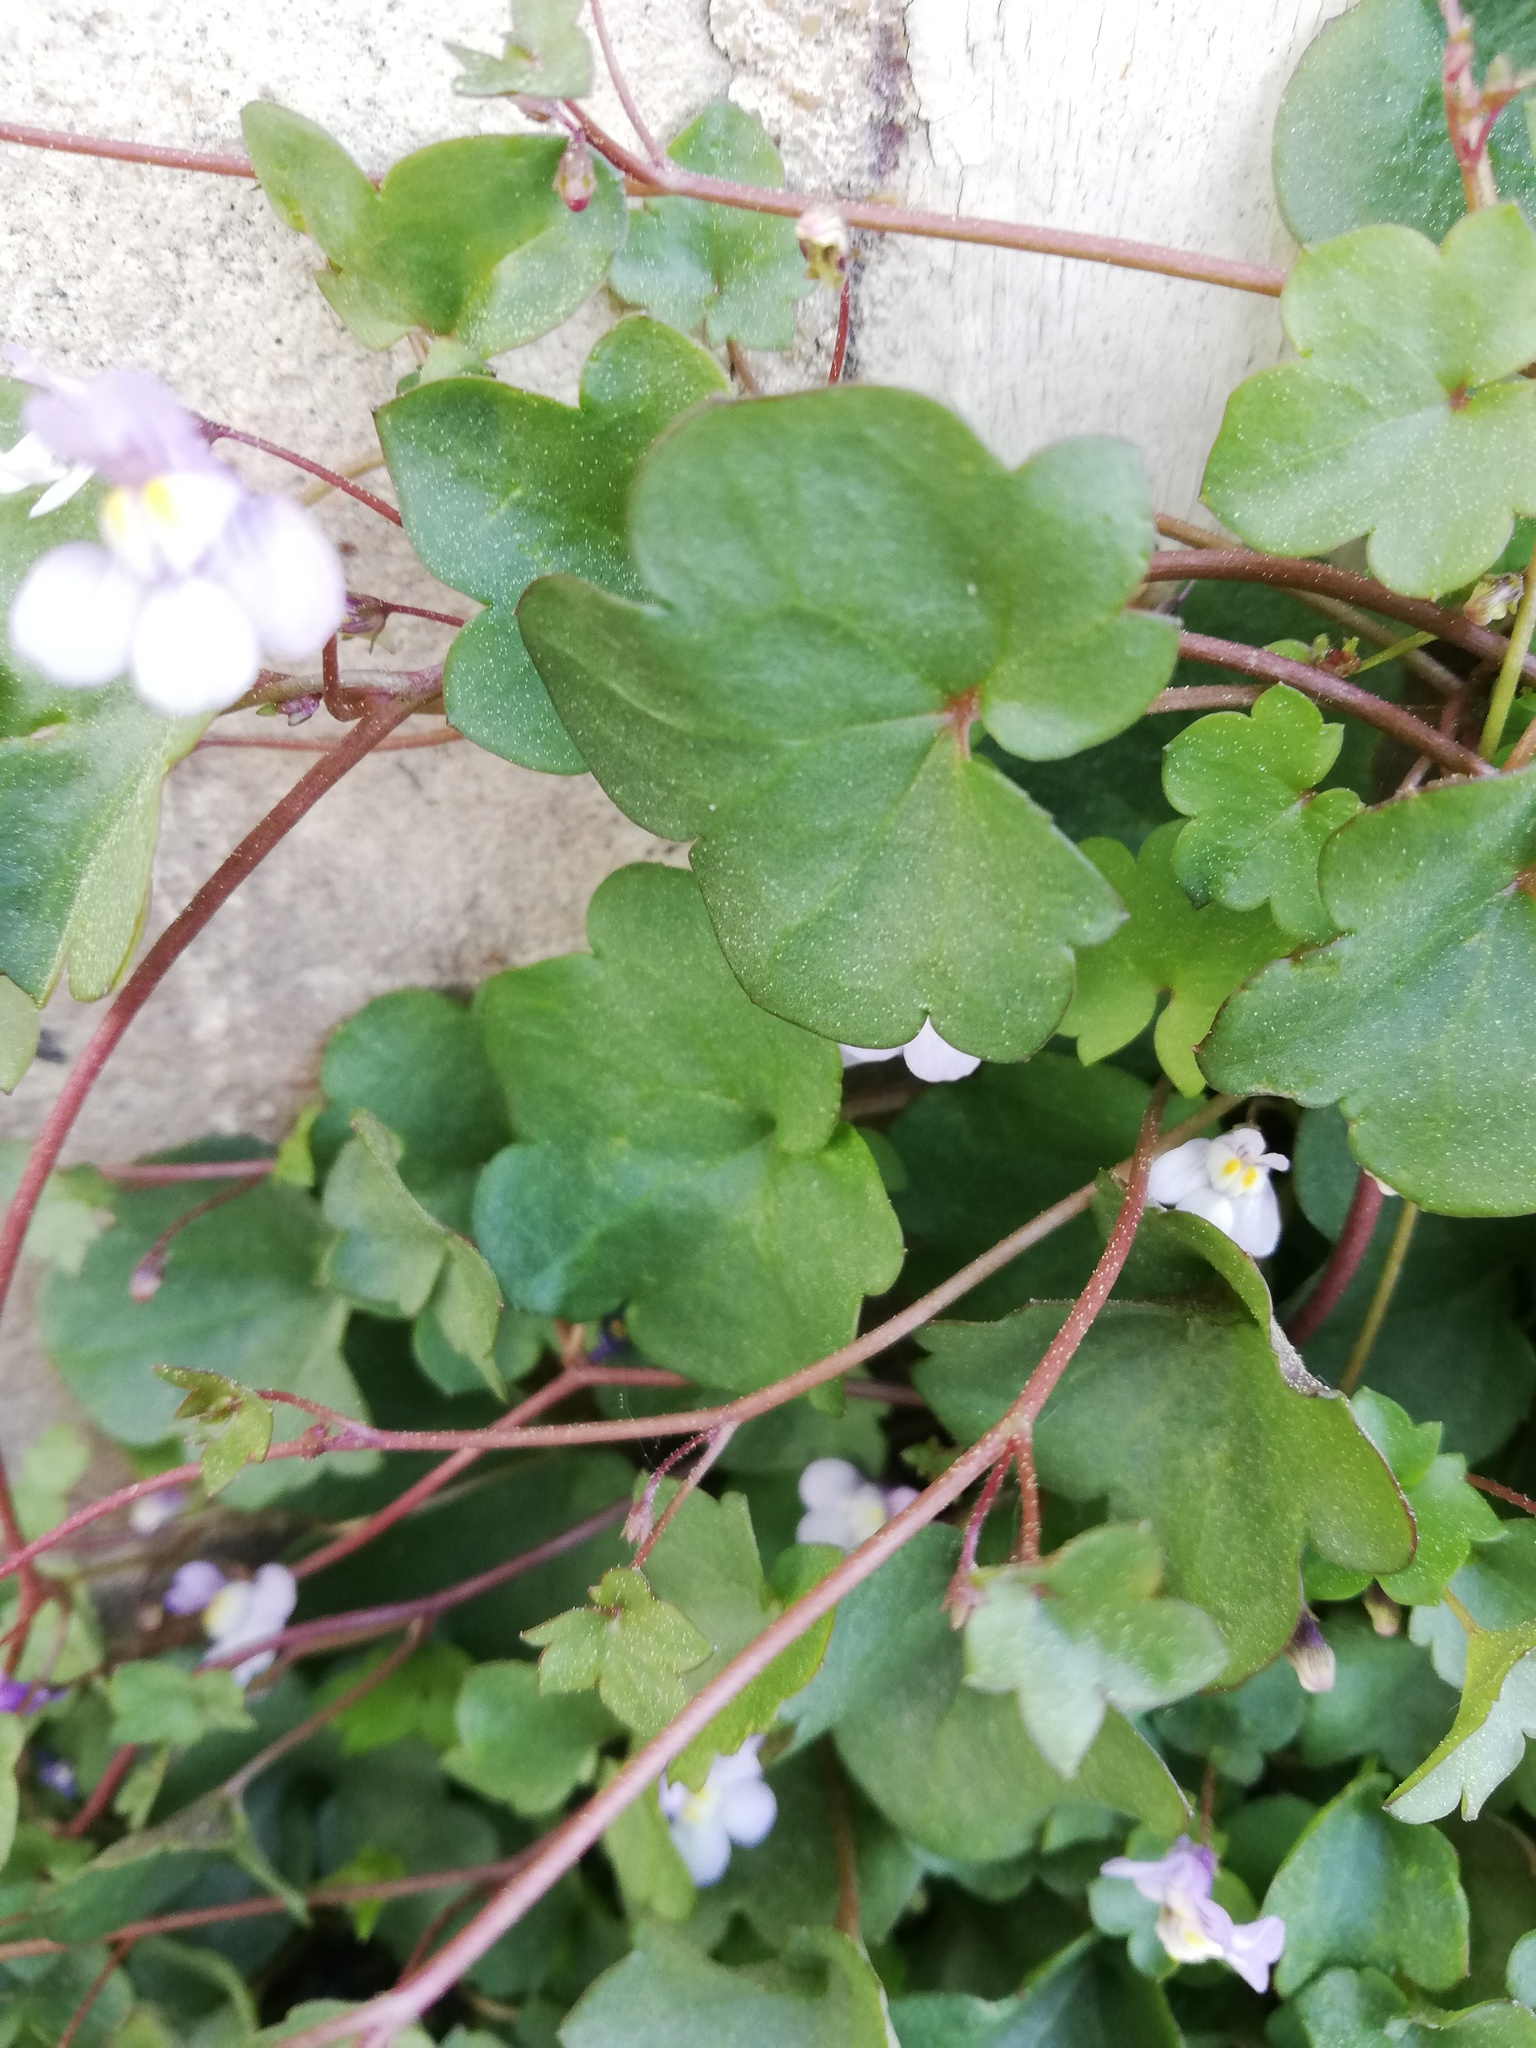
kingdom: Plantae
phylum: Tracheophyta
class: Magnoliopsida
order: Lamiales
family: Plantaginaceae
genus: Cymbalaria
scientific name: Cymbalaria muralis
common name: Ivy-leaved toadflax
